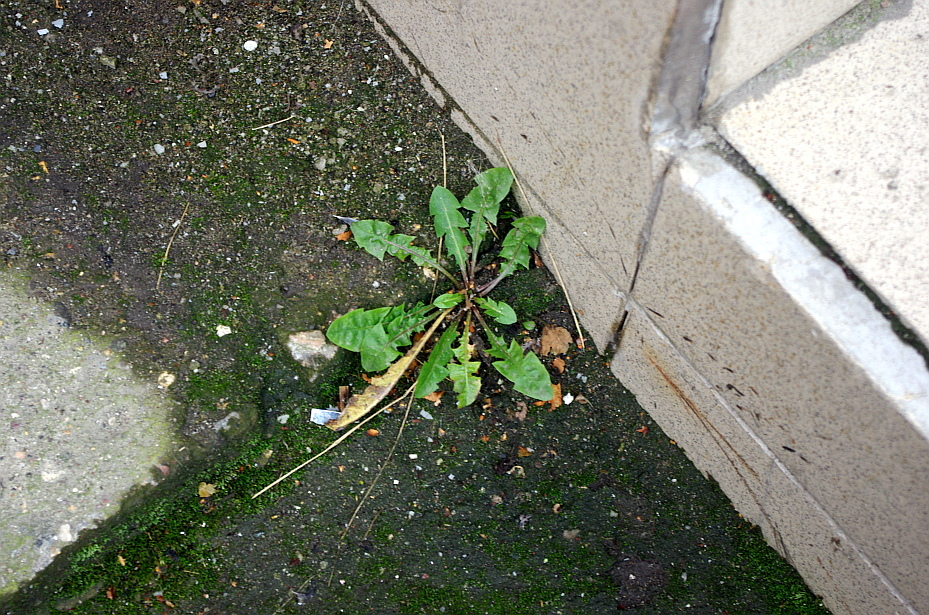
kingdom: Plantae
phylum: Tracheophyta
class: Magnoliopsida
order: Asterales
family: Asteraceae
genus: Taraxacum
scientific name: Taraxacum officinale
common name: Common dandelion
